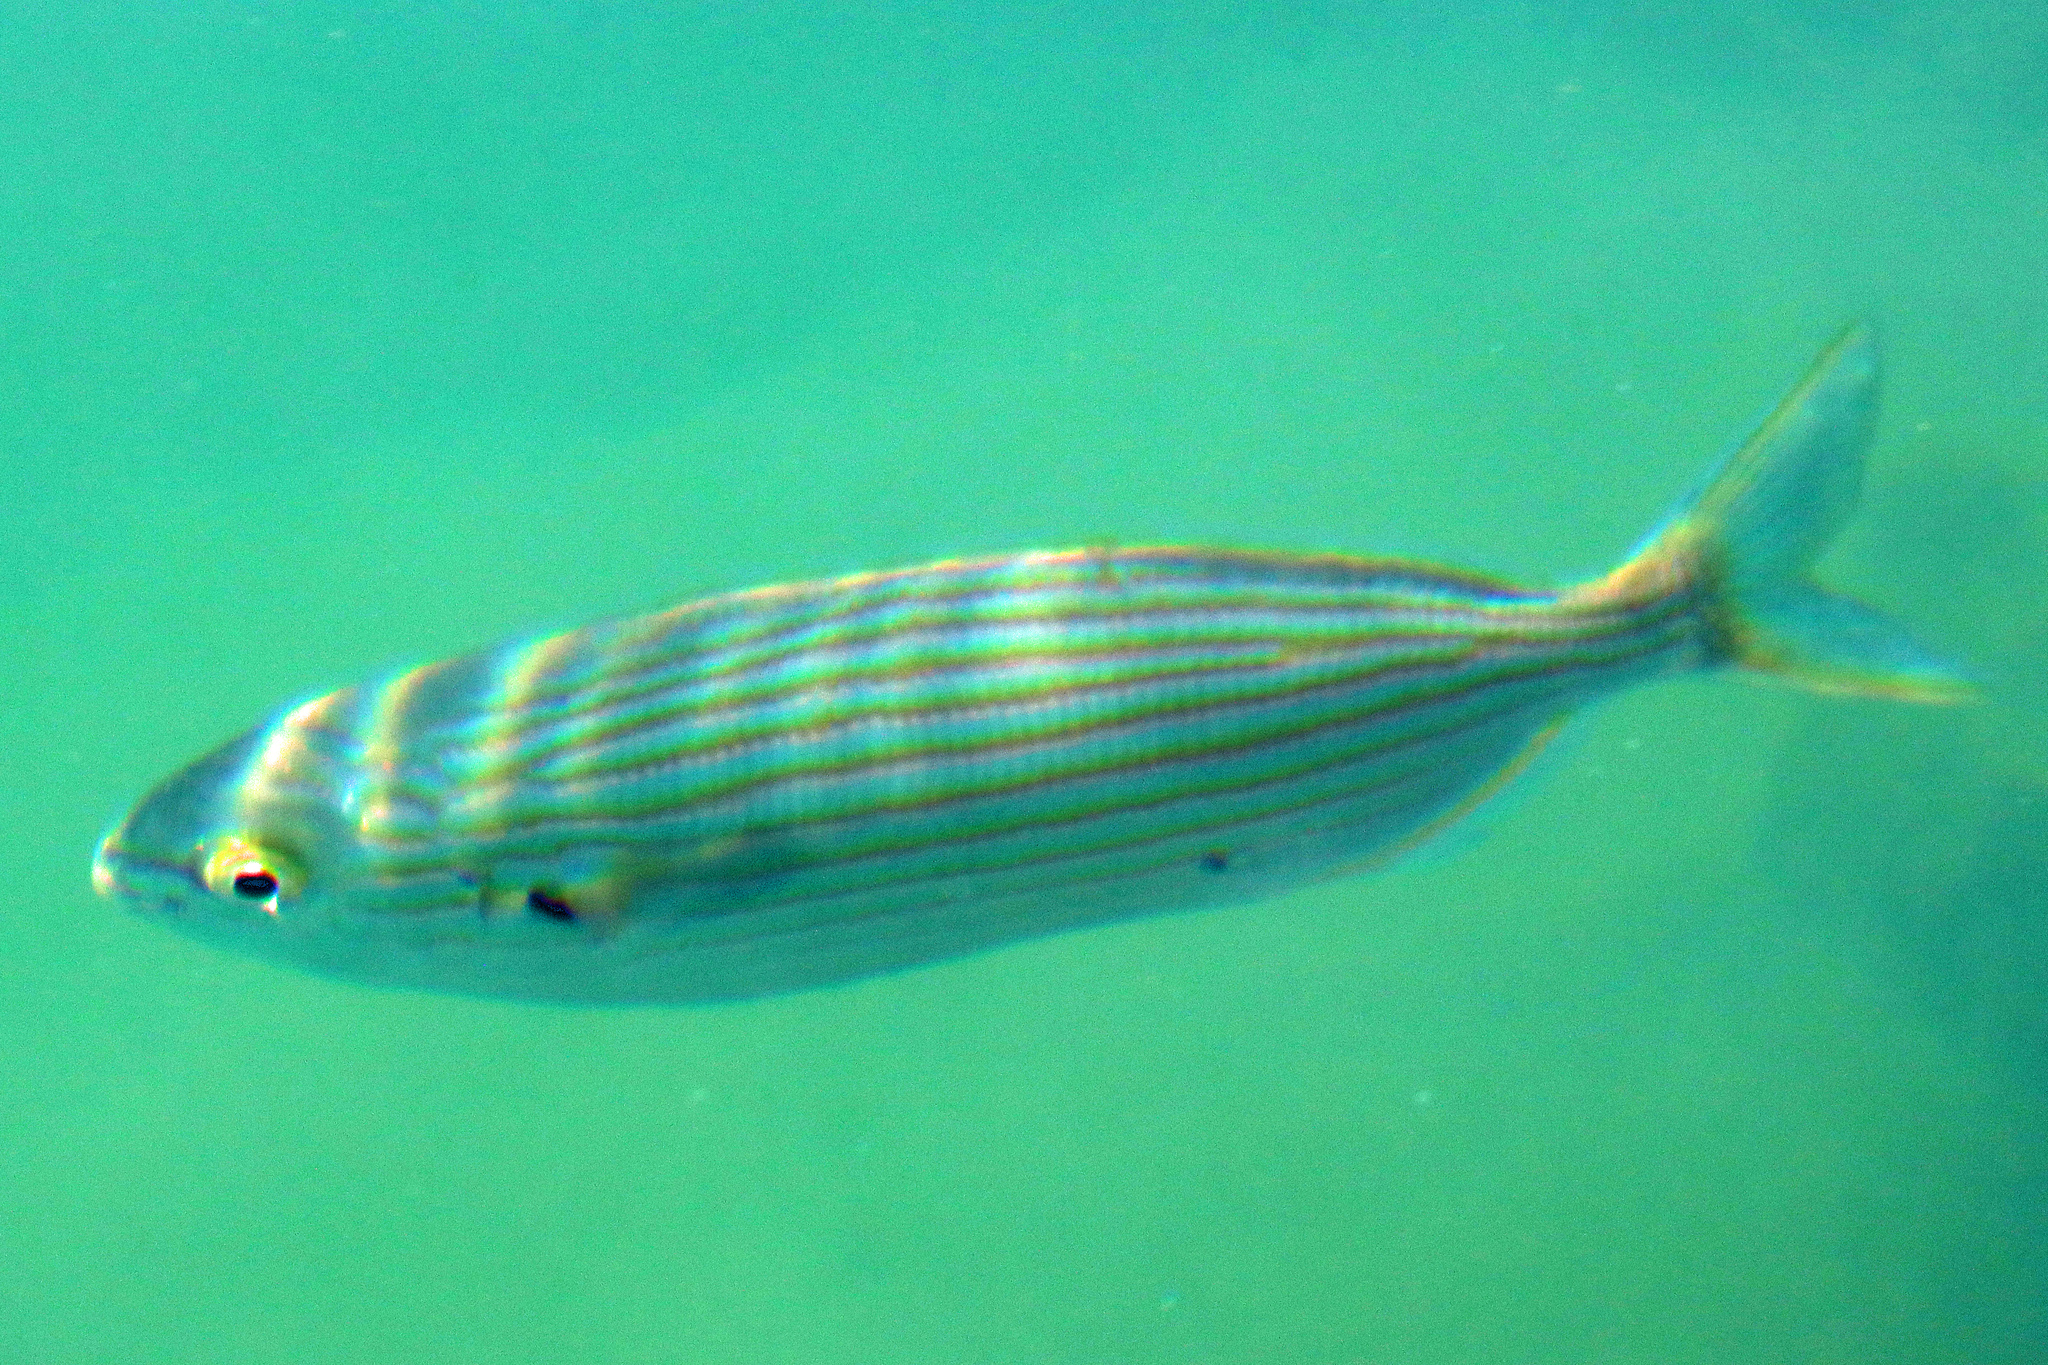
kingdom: Animalia
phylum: Chordata
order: Perciformes
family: Sparidae
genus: Sarpa
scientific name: Sarpa salpa
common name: Salema
